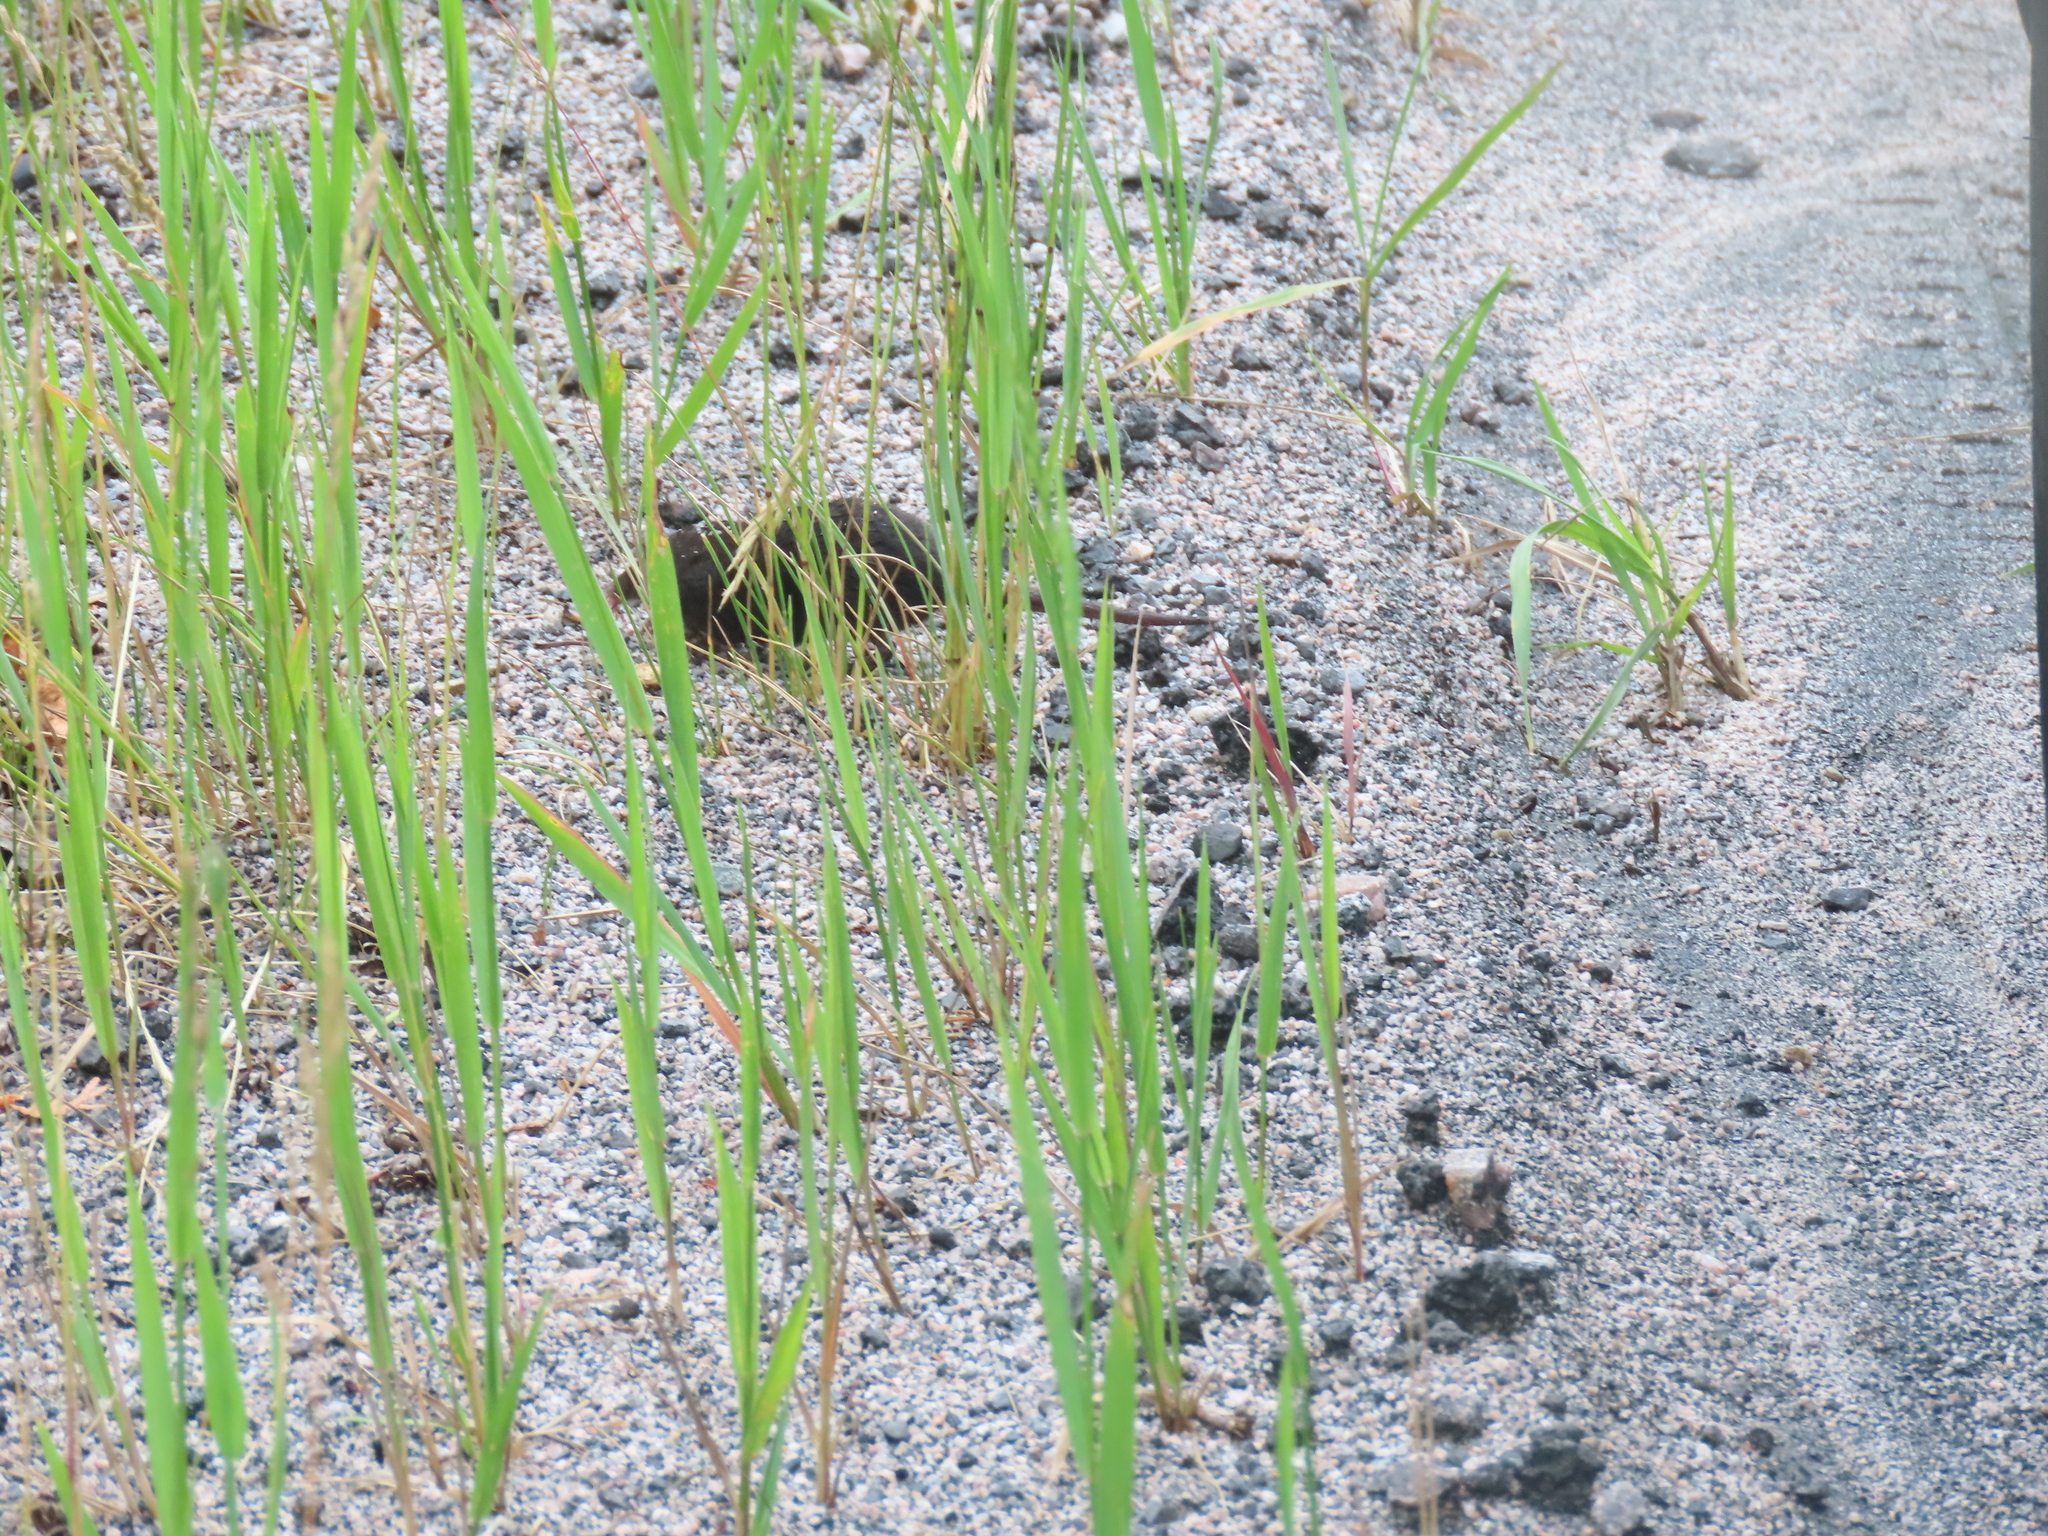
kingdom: Animalia
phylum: Chordata
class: Mammalia
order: Soricomorpha
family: Talpidae
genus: Condylura
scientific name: Condylura cristata
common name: Star-nosed mole
